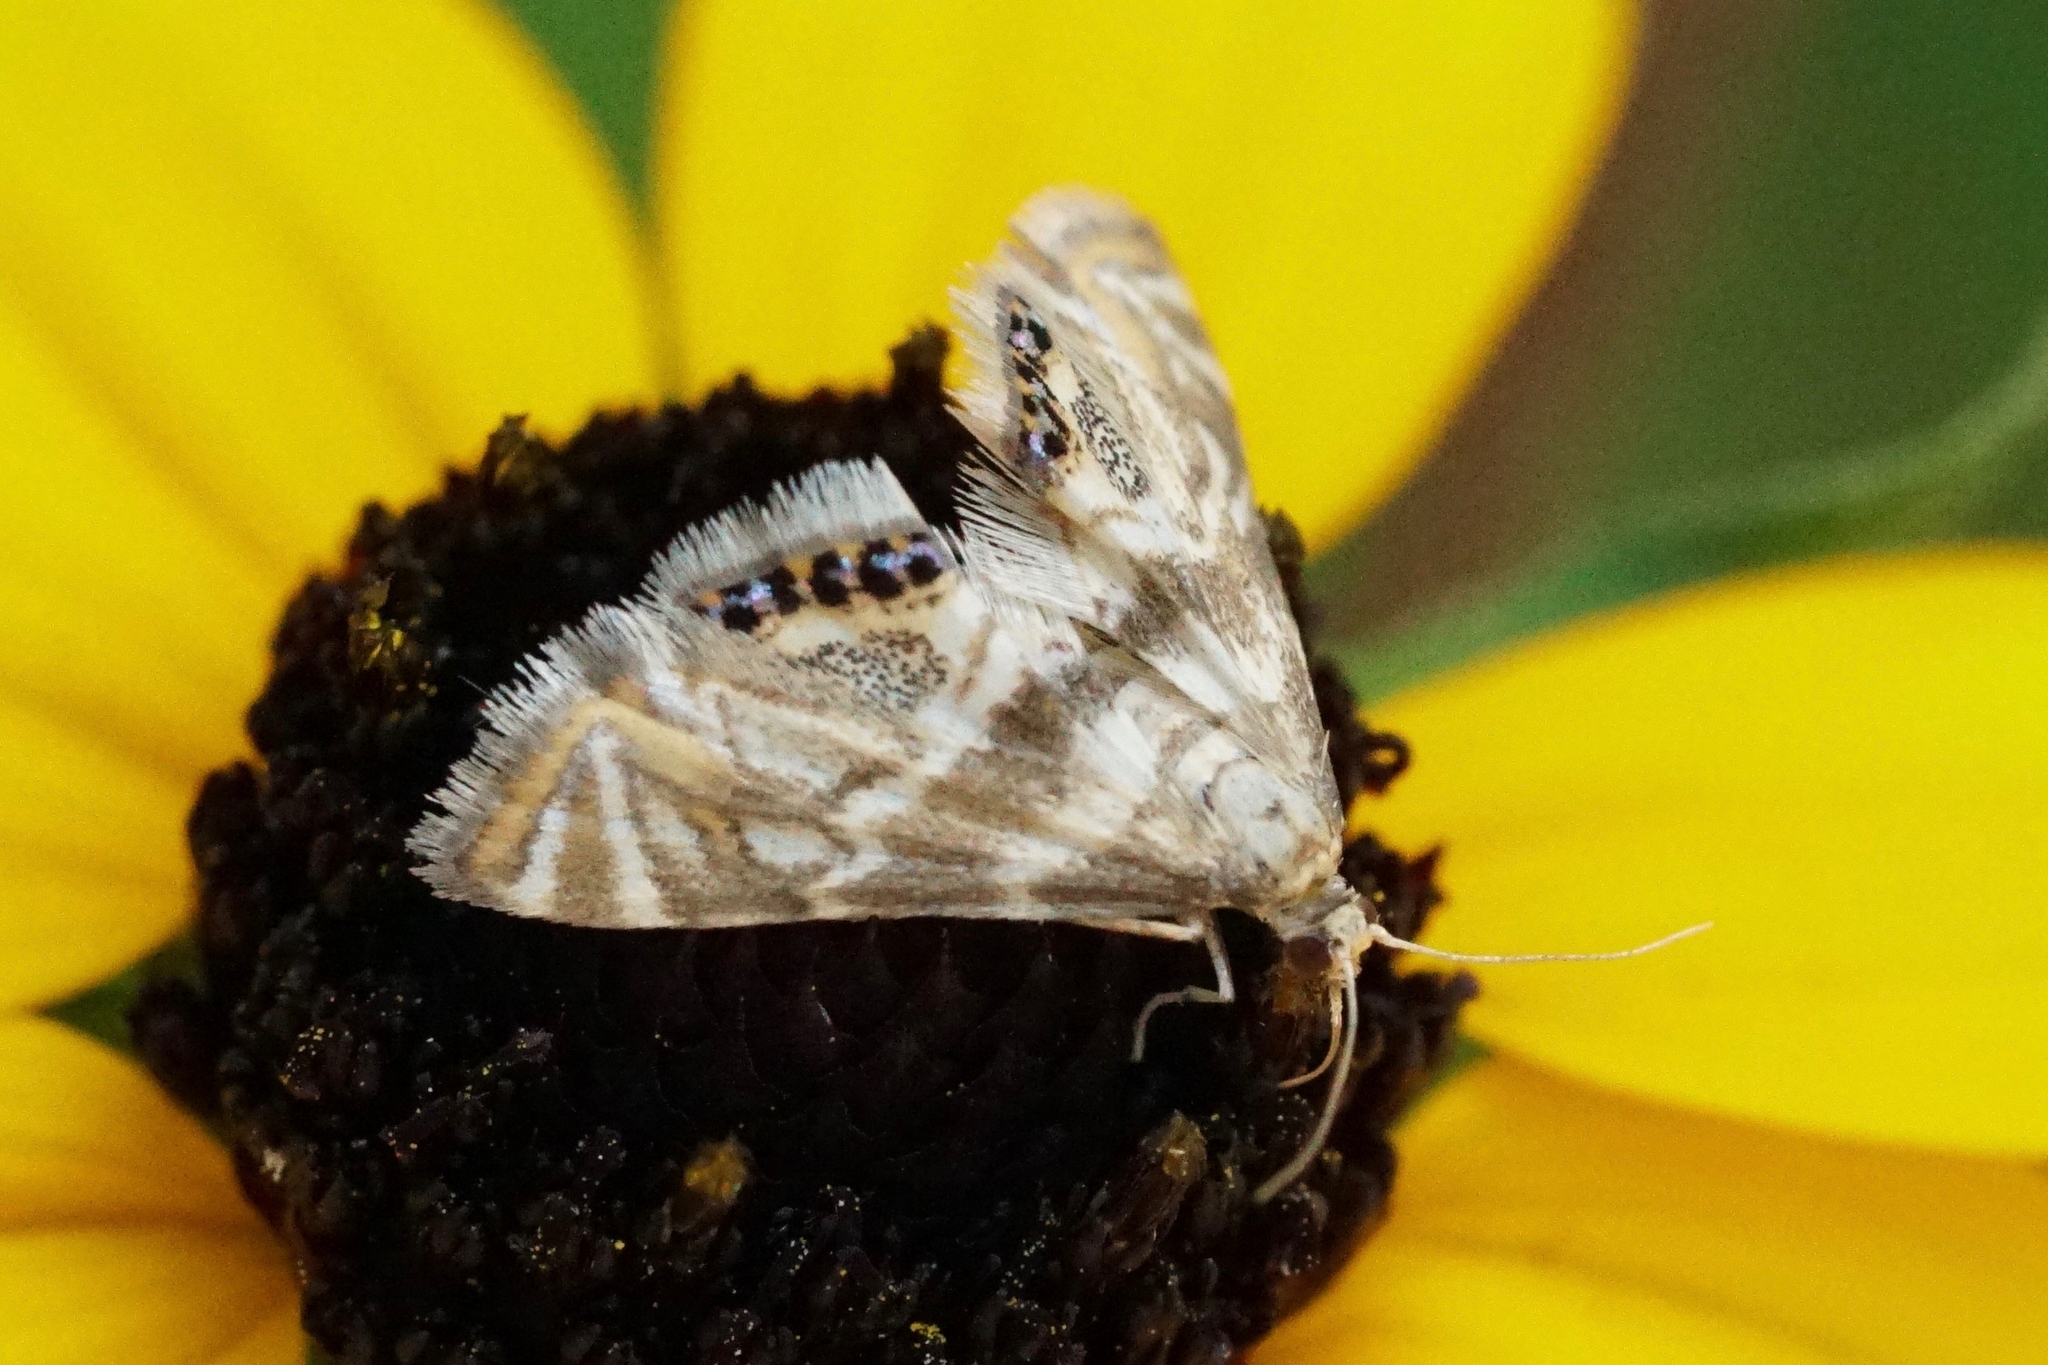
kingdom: Animalia
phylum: Arthropoda
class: Insecta
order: Lepidoptera
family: Crambidae
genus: Petrophila
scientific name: Petrophila canadensis
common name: Canadian petrophila
